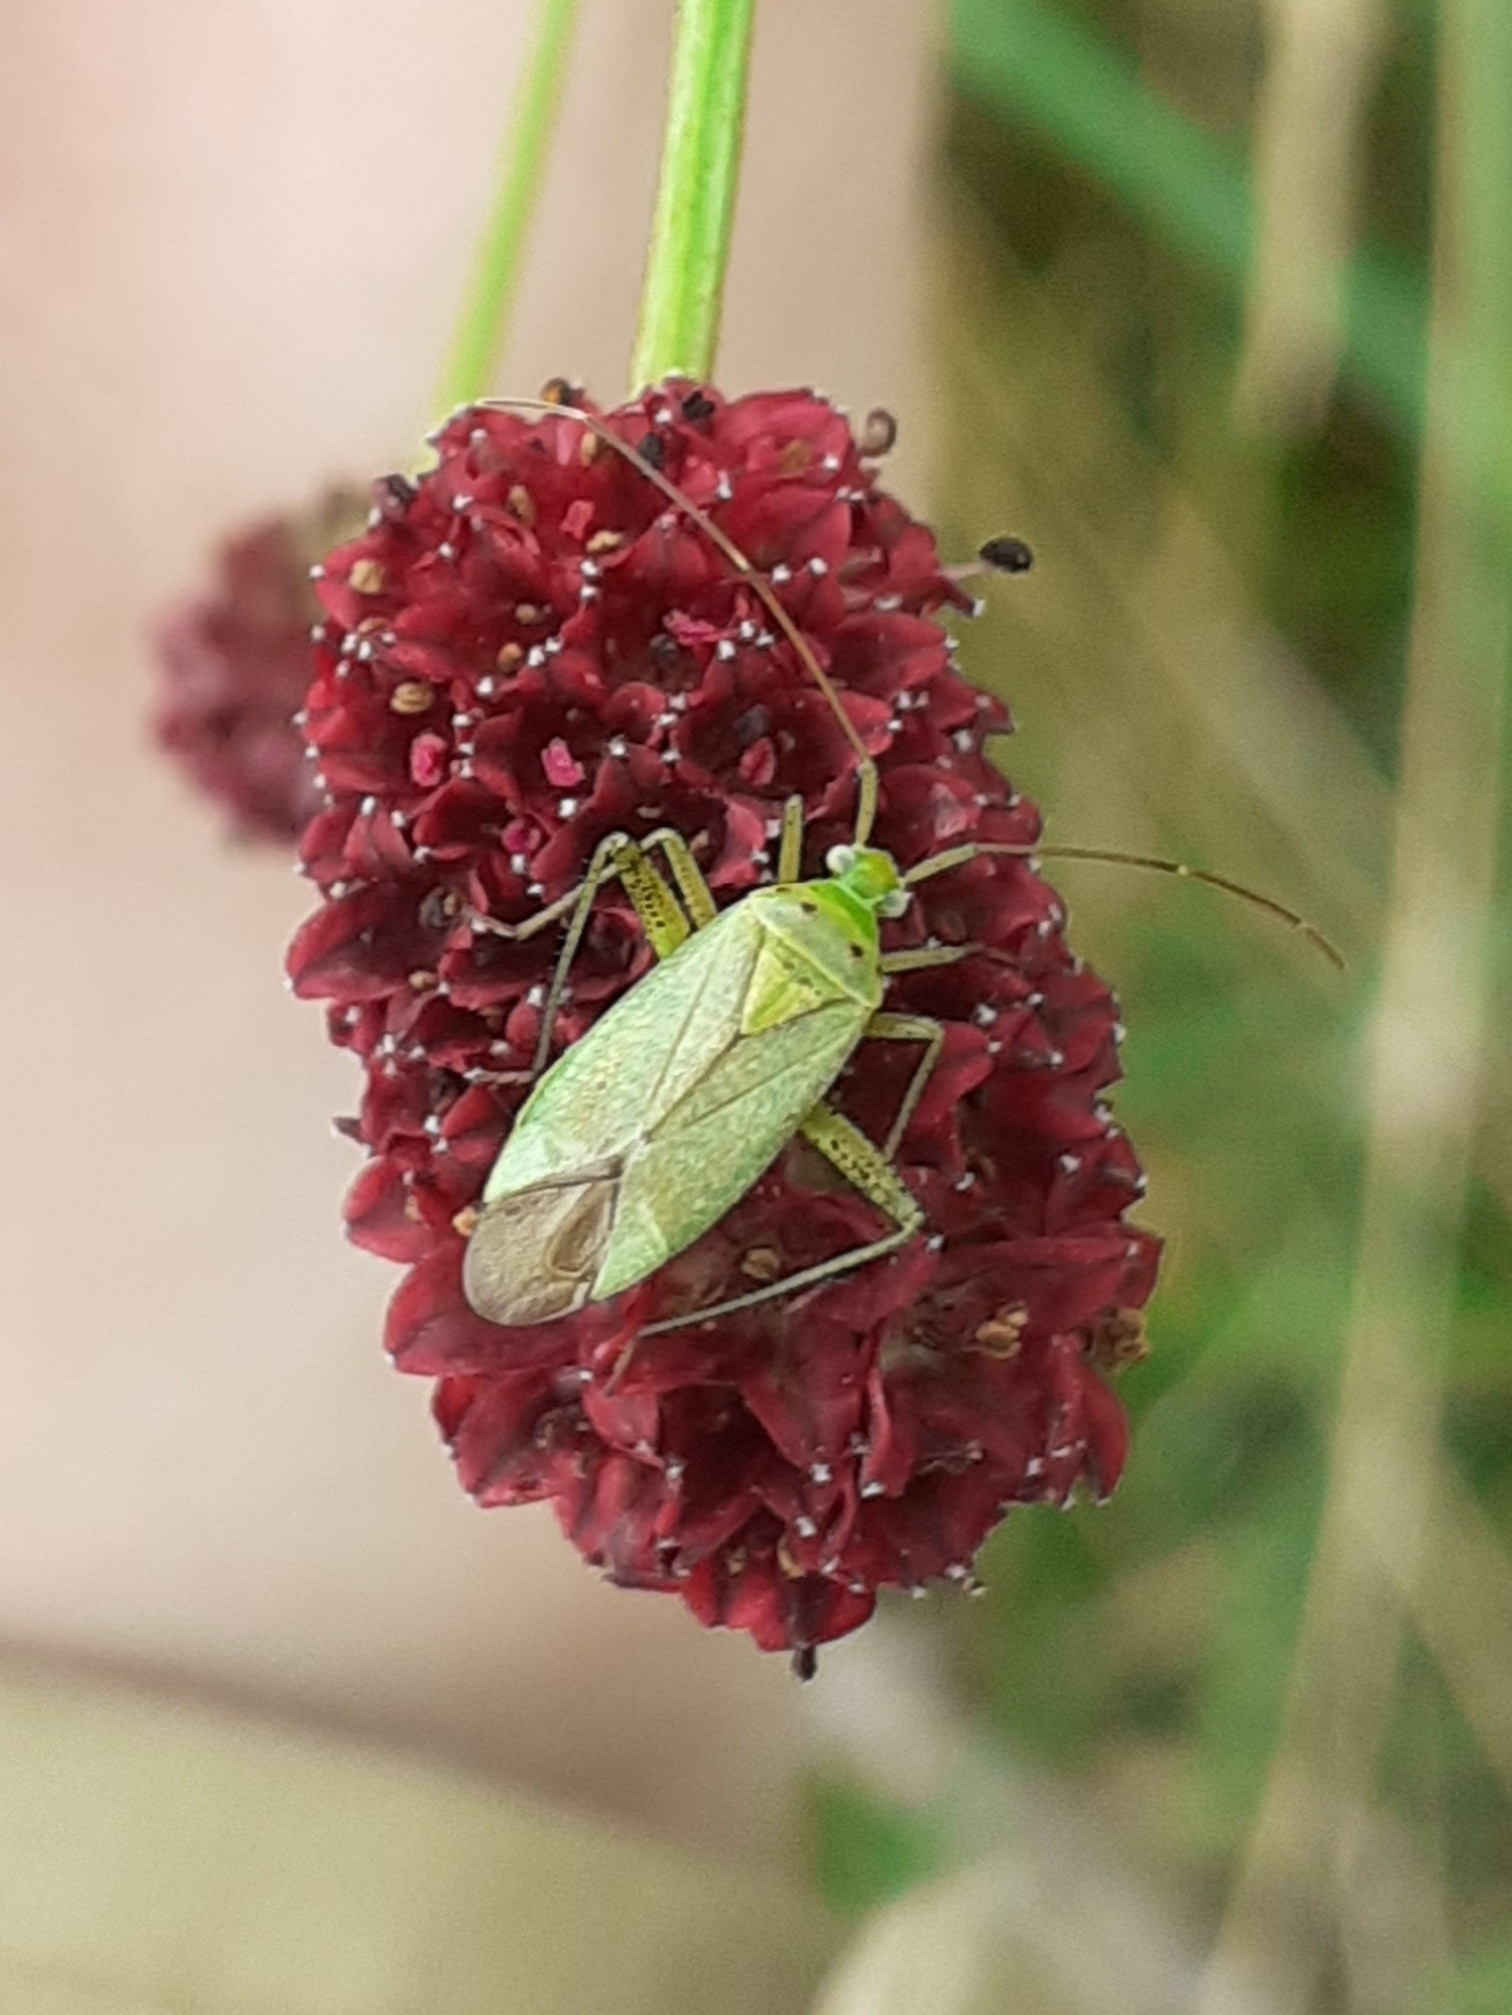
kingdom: Animalia
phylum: Arthropoda
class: Insecta
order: Hemiptera
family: Miridae
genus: Adelphocoris
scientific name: Adelphocoris quadripunctatus
